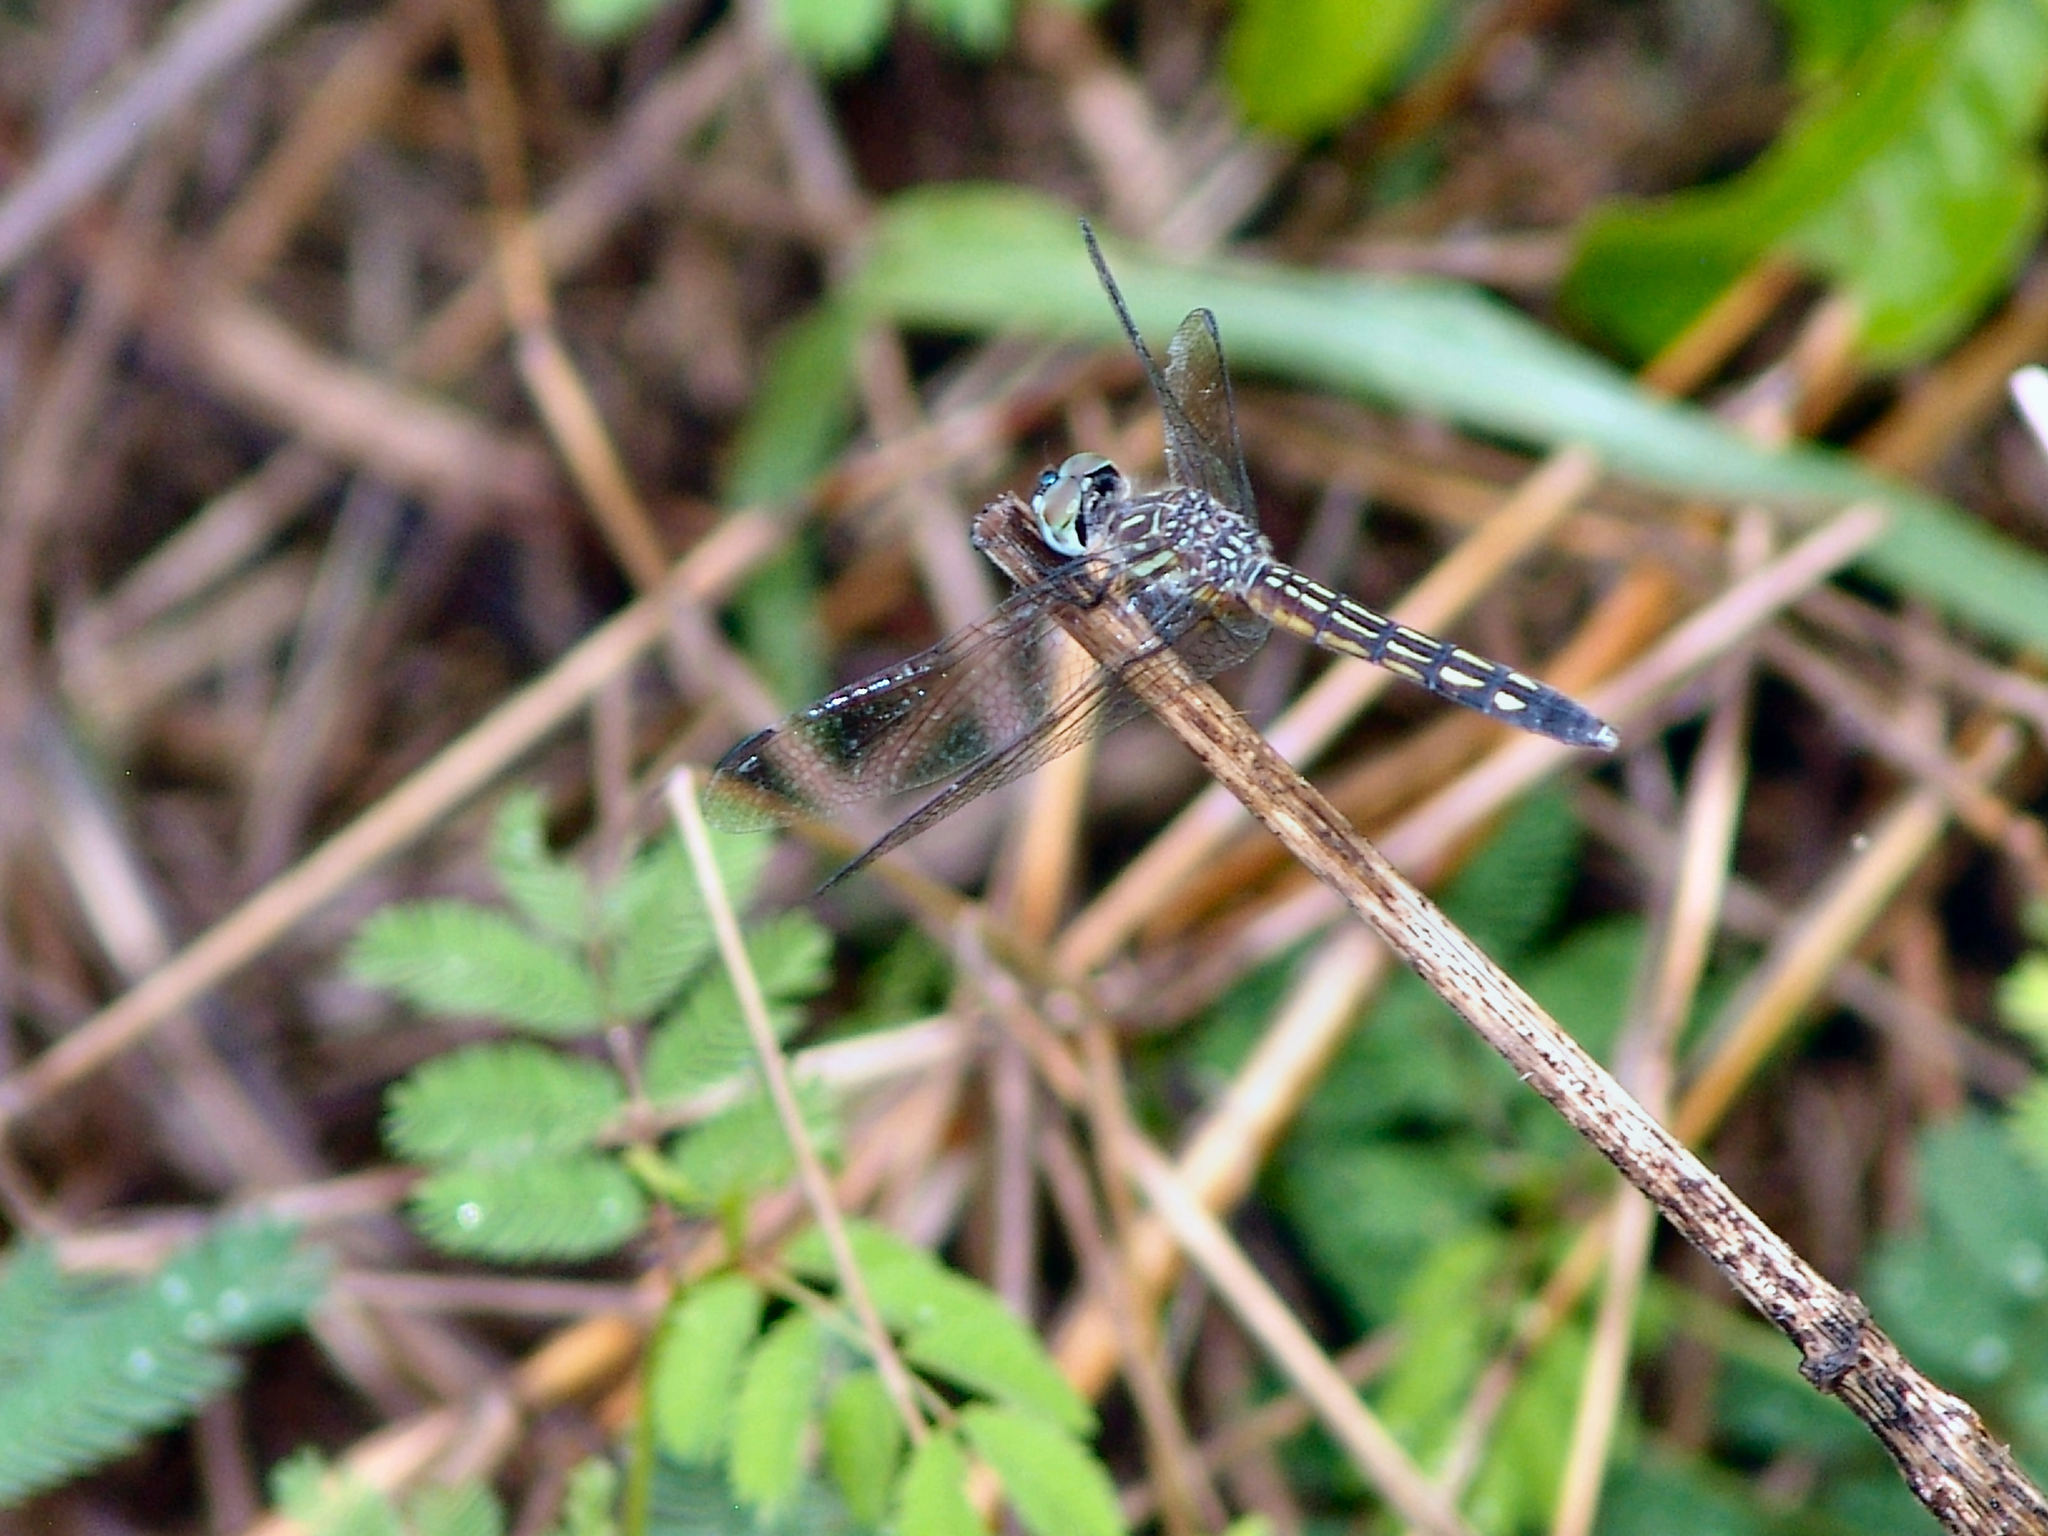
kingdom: Animalia
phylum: Arthropoda
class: Insecta
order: Odonata
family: Libellulidae
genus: Pachydiplax
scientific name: Pachydiplax longipennis
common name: Blue dasher
